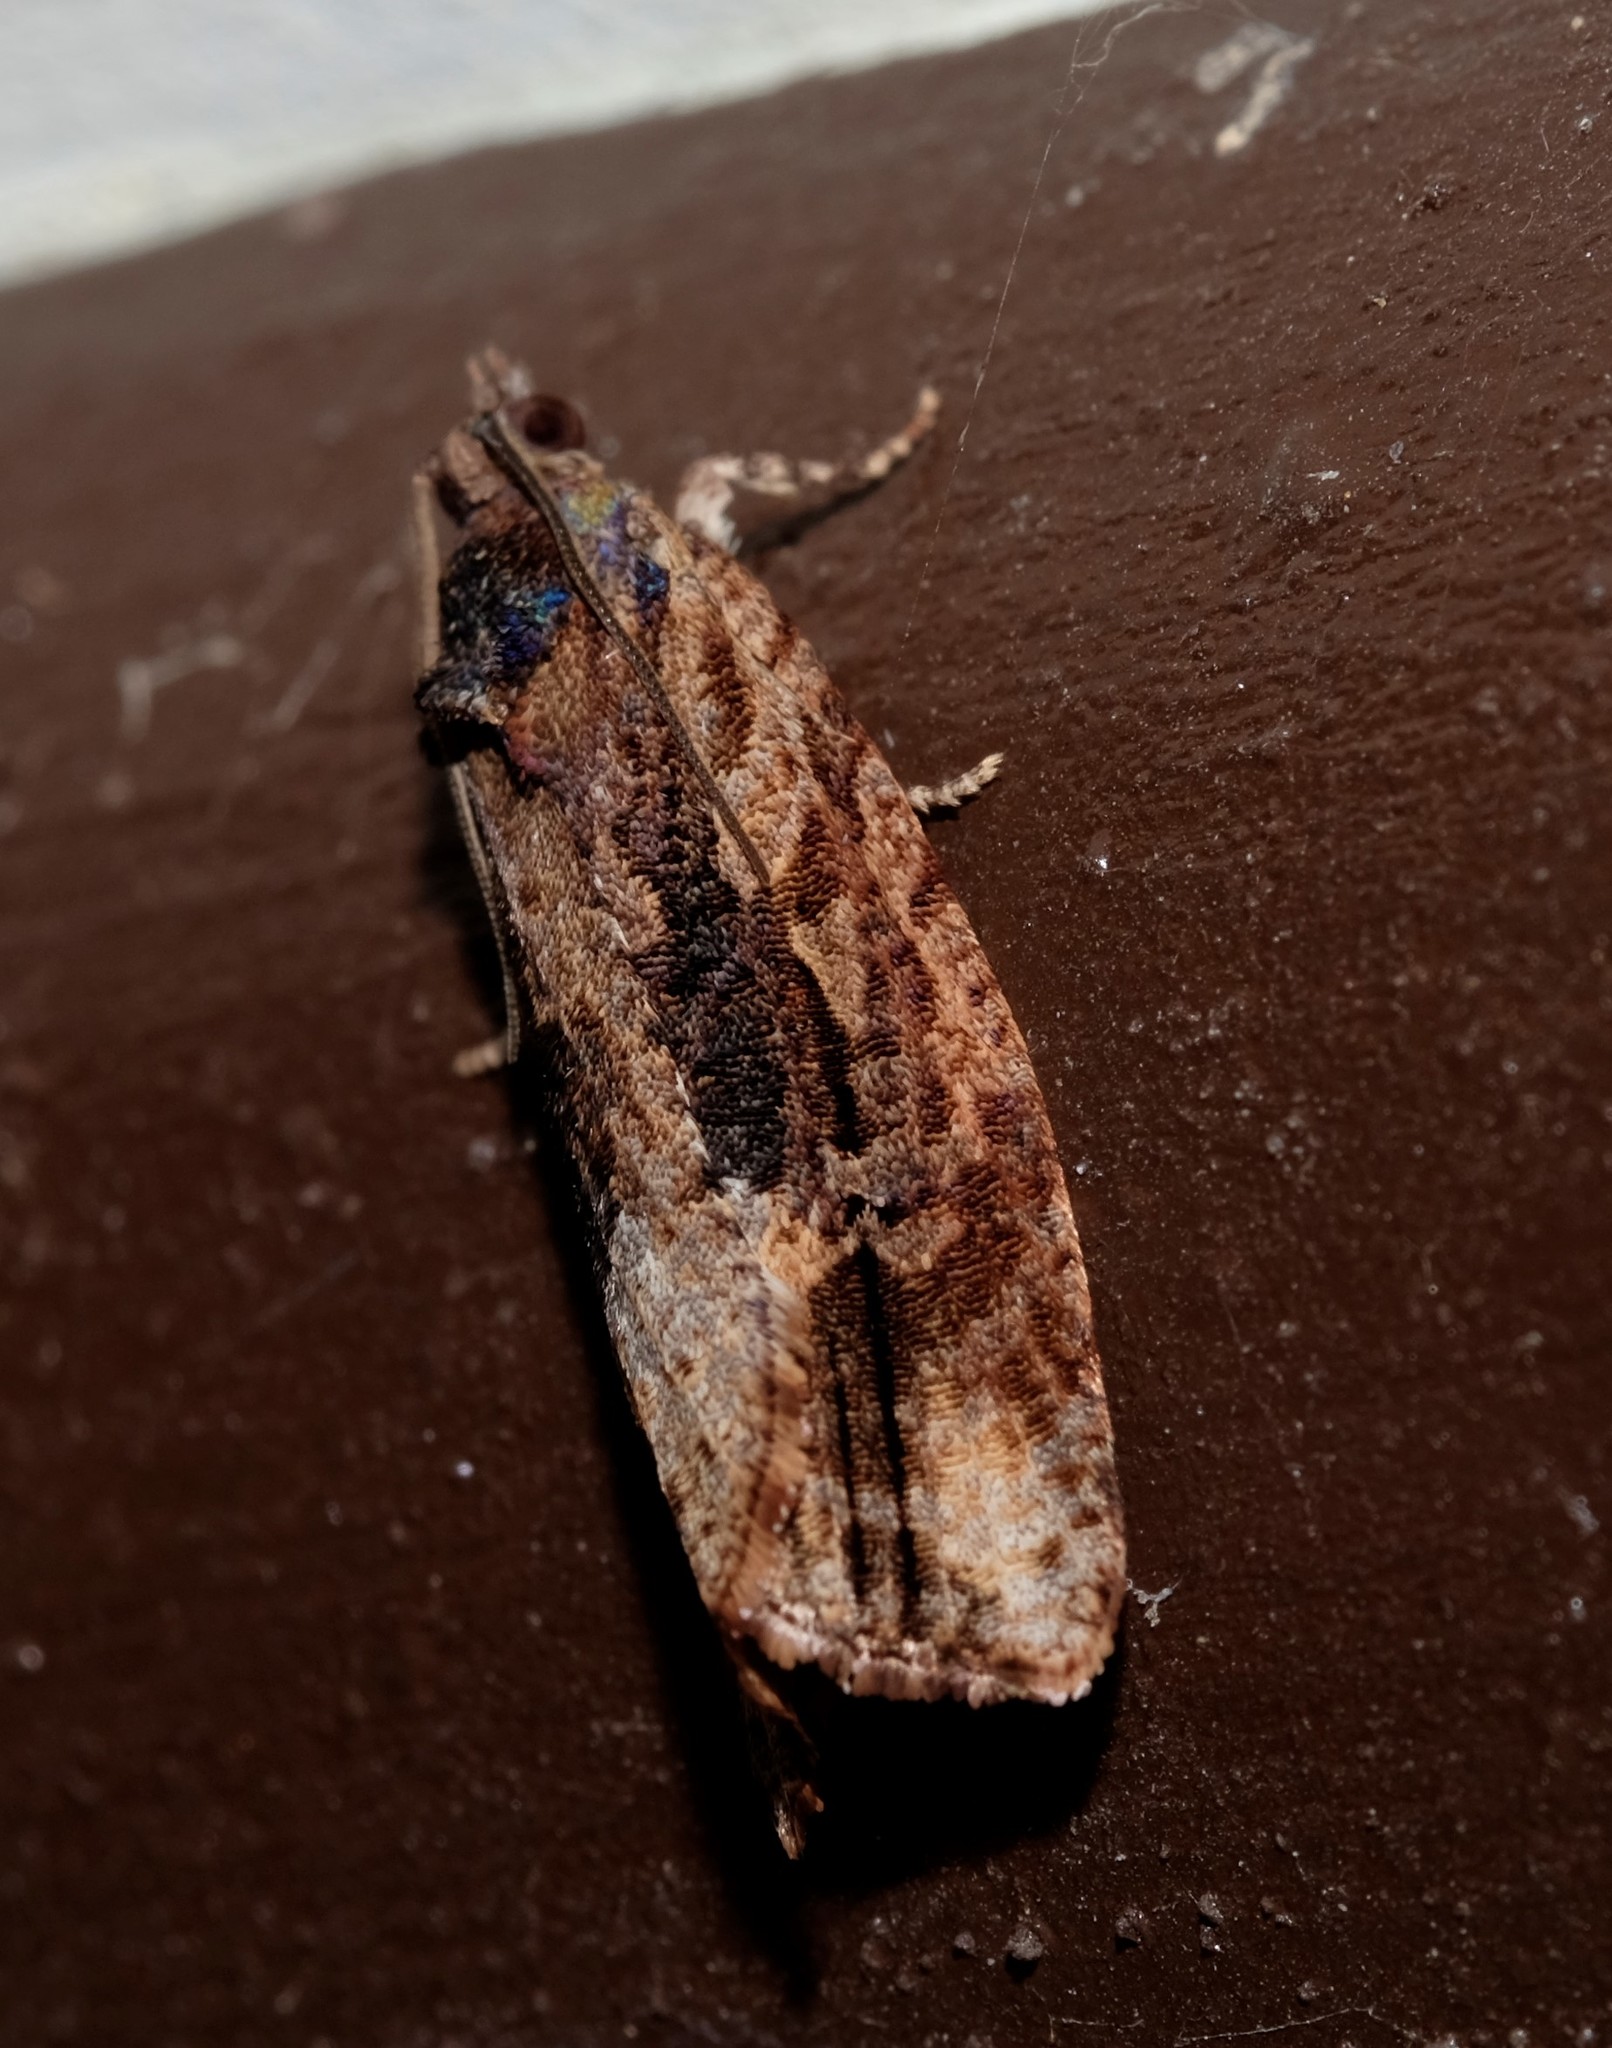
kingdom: Animalia
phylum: Arthropoda
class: Insecta
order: Lepidoptera
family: Tortricidae
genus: Thrincophora
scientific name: Thrincophora lignigerana
